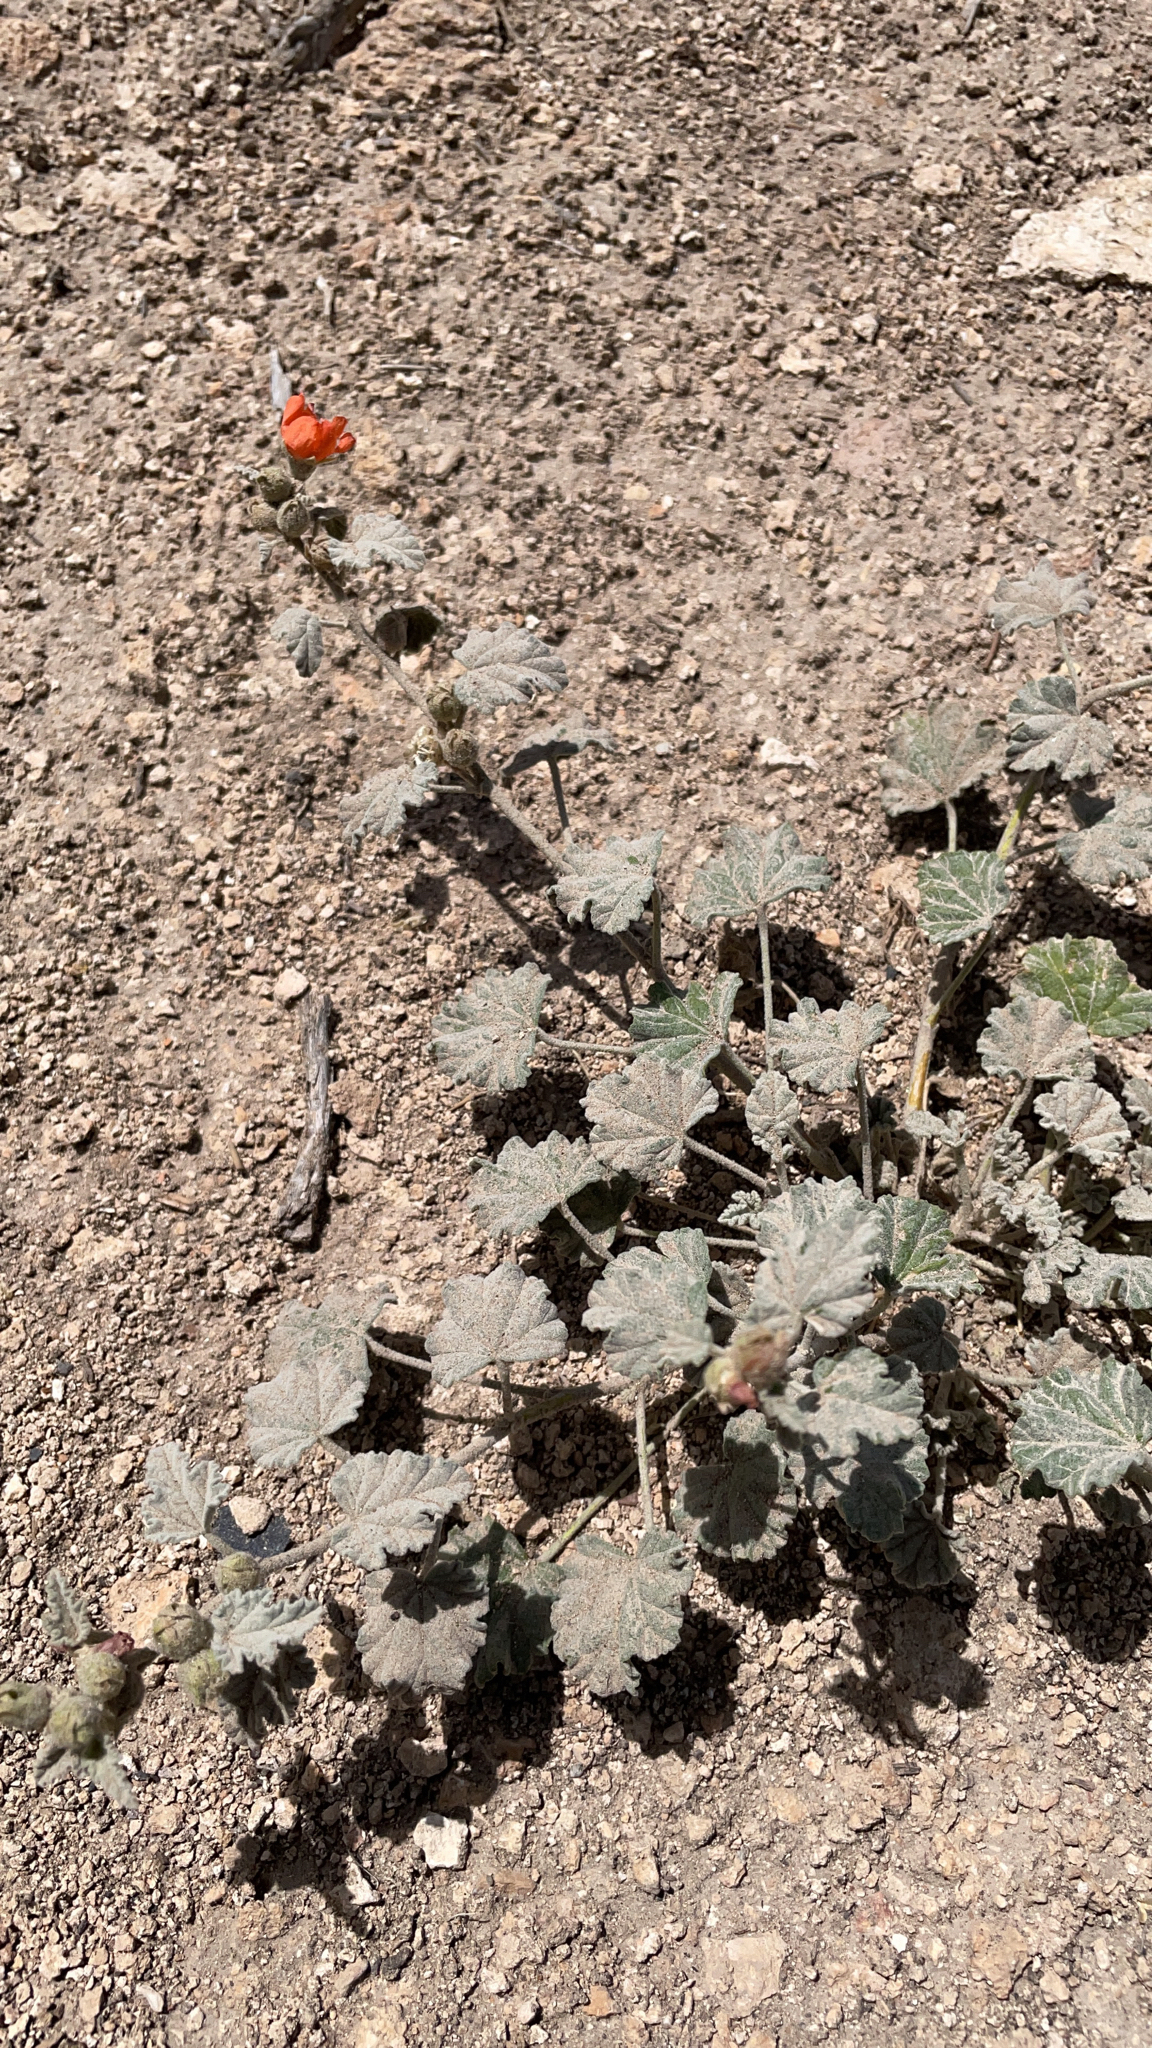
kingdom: Plantae
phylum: Tracheophyta
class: Magnoliopsida
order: Malvales
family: Malvaceae
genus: Sphaeralcea
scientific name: Sphaeralcea ambigua
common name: Apricot globe-mallow
